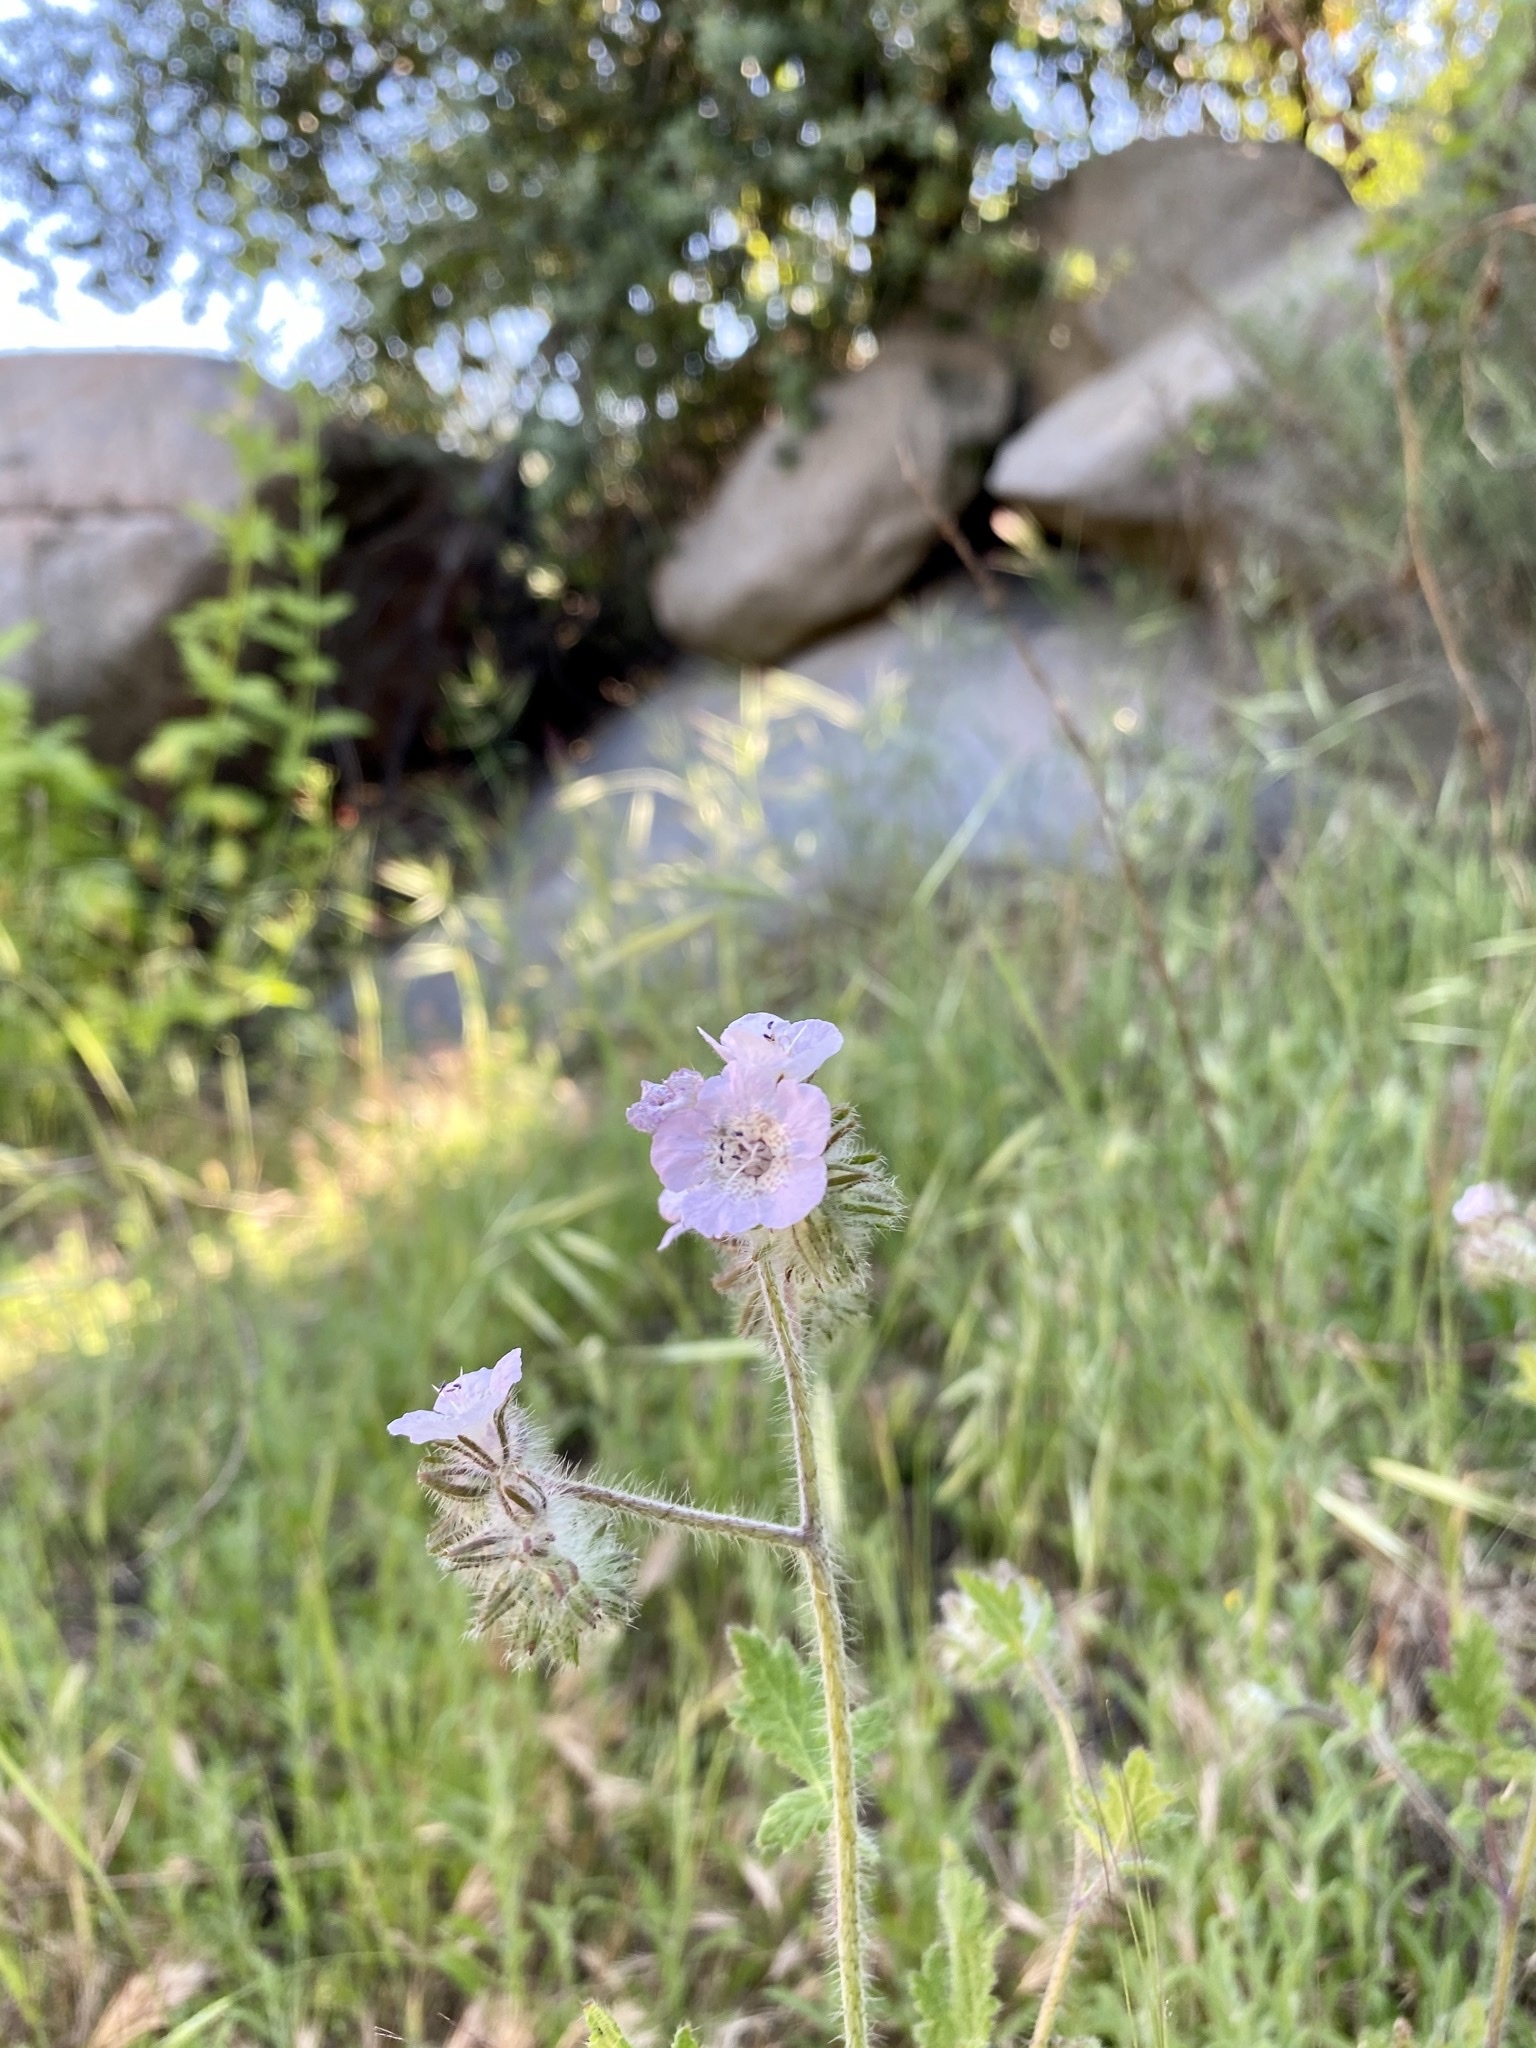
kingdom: Plantae
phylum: Tracheophyta
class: Magnoliopsida
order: Boraginales
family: Hydrophyllaceae
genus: Phacelia
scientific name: Phacelia cicutaria
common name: Caterpillar phacelia
